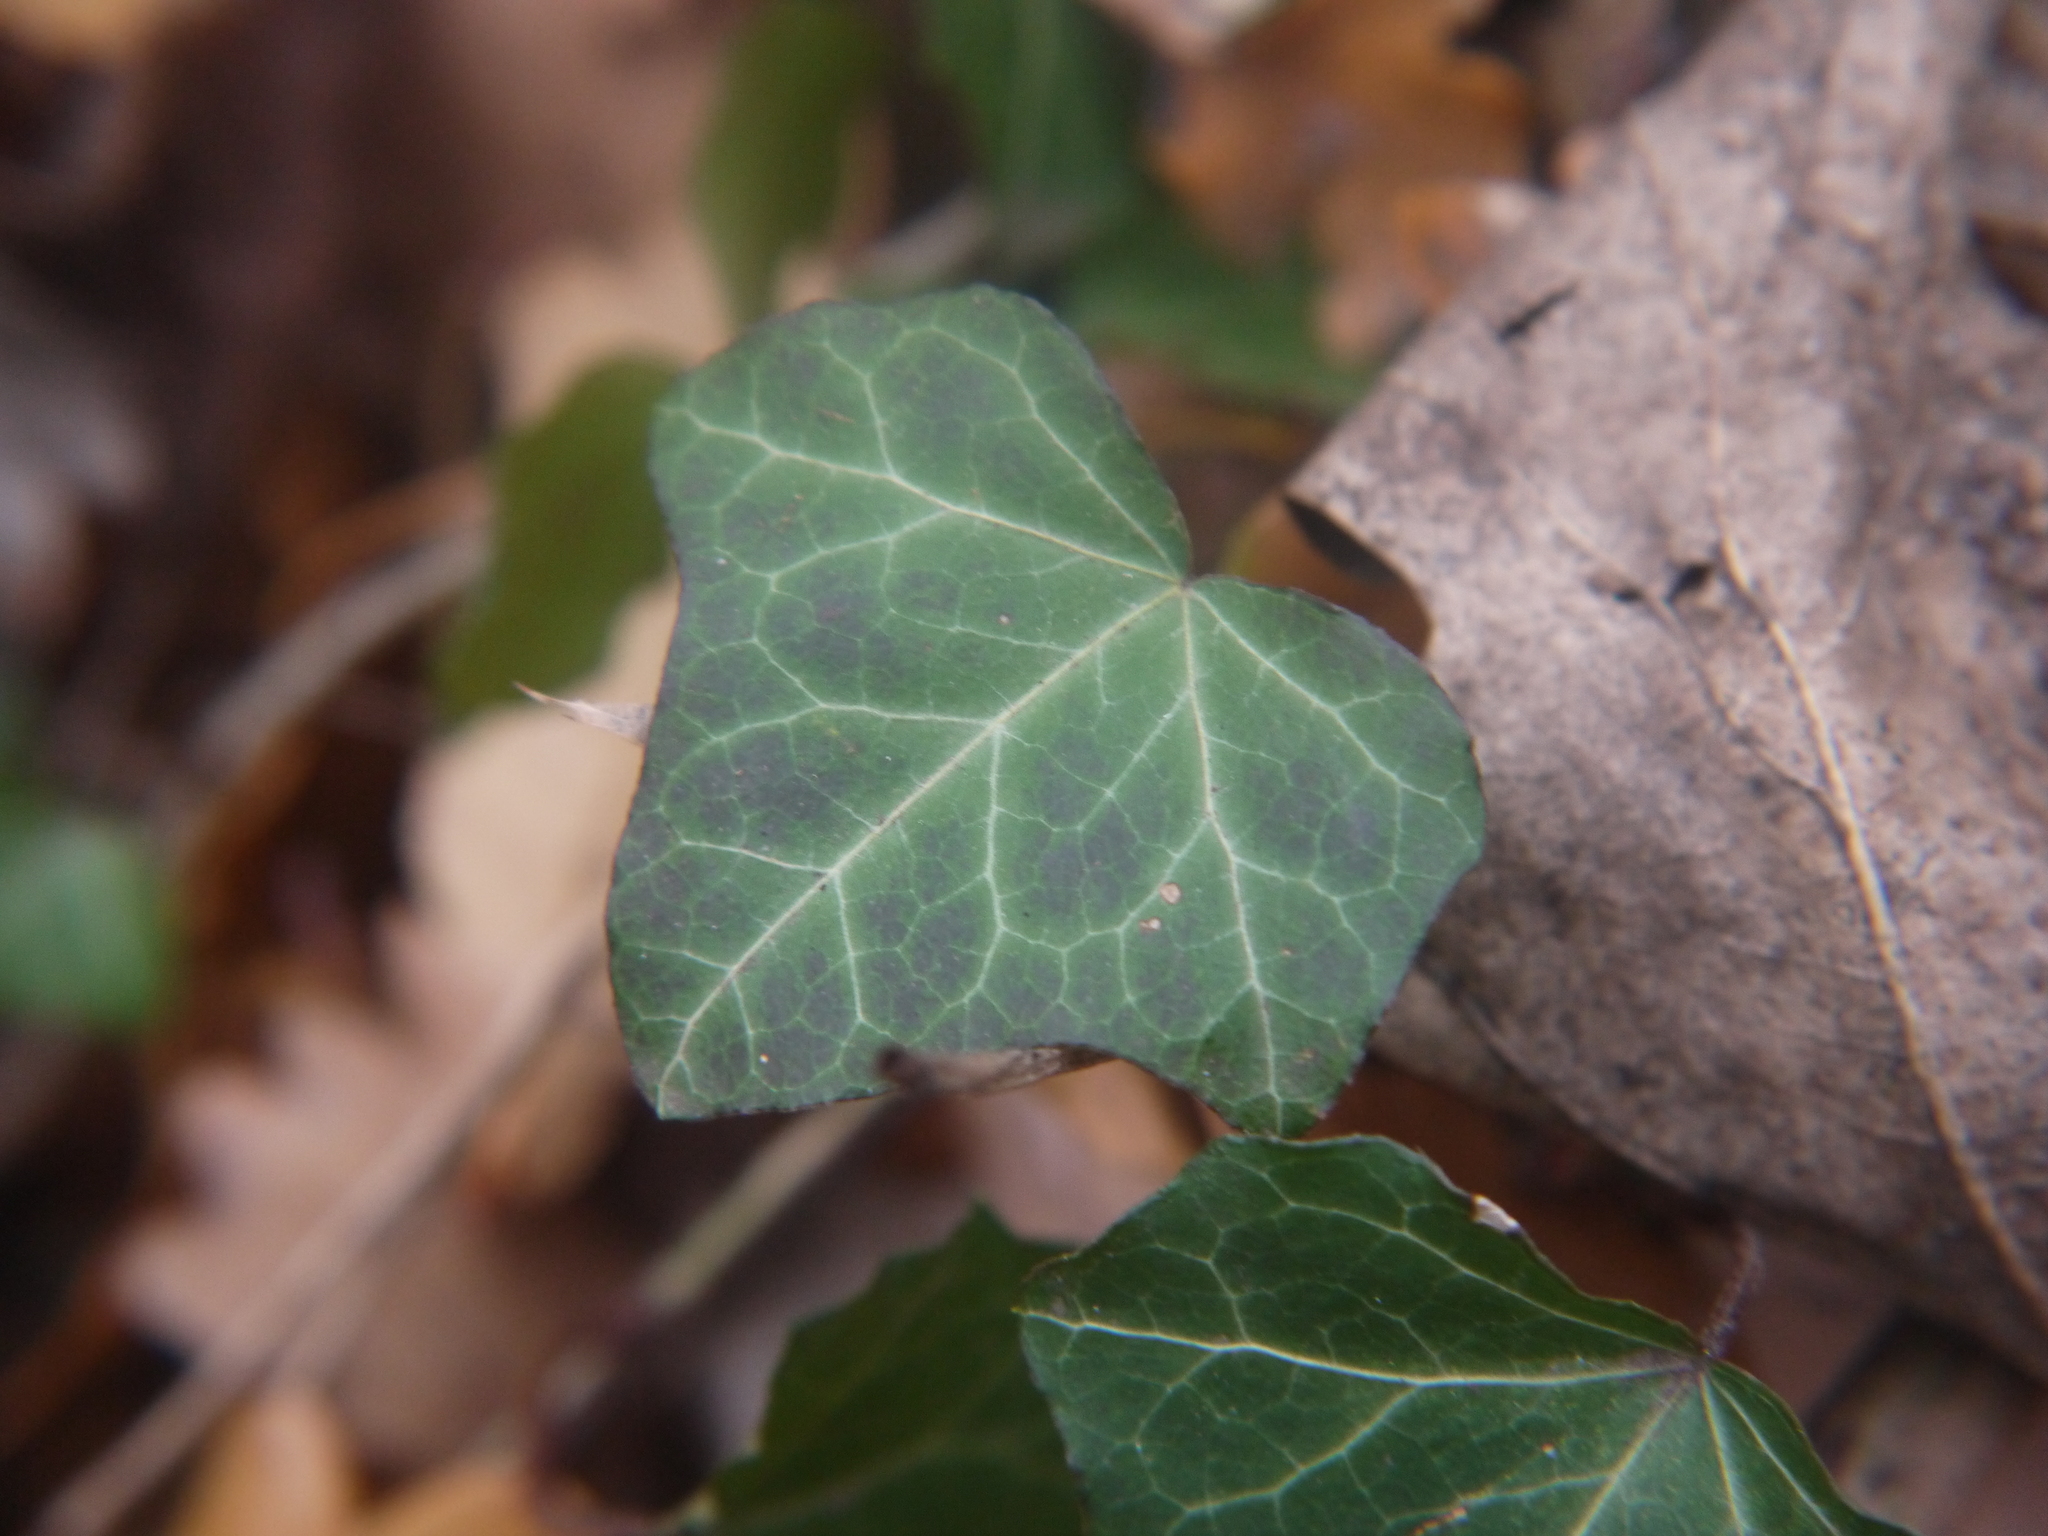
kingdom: Plantae
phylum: Tracheophyta
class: Magnoliopsida
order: Apiales
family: Araliaceae
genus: Hedera
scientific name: Hedera helix
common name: Ivy
